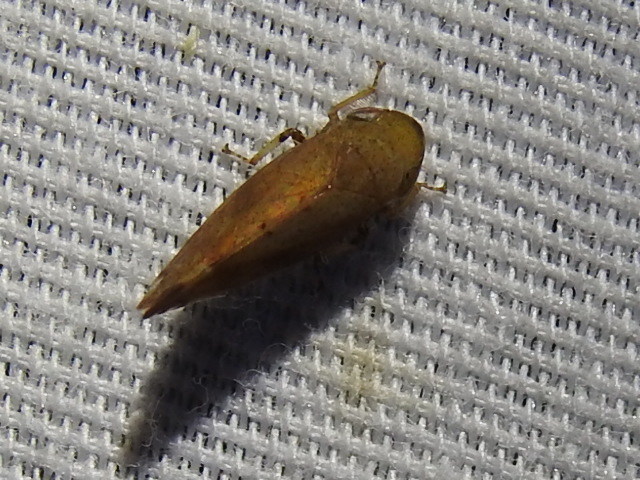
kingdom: Animalia
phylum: Arthropoda
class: Insecta
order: Hemiptera
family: Cicadellidae
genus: Fieberiella
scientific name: Fieberiella florii
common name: Flor’s leafhopper
